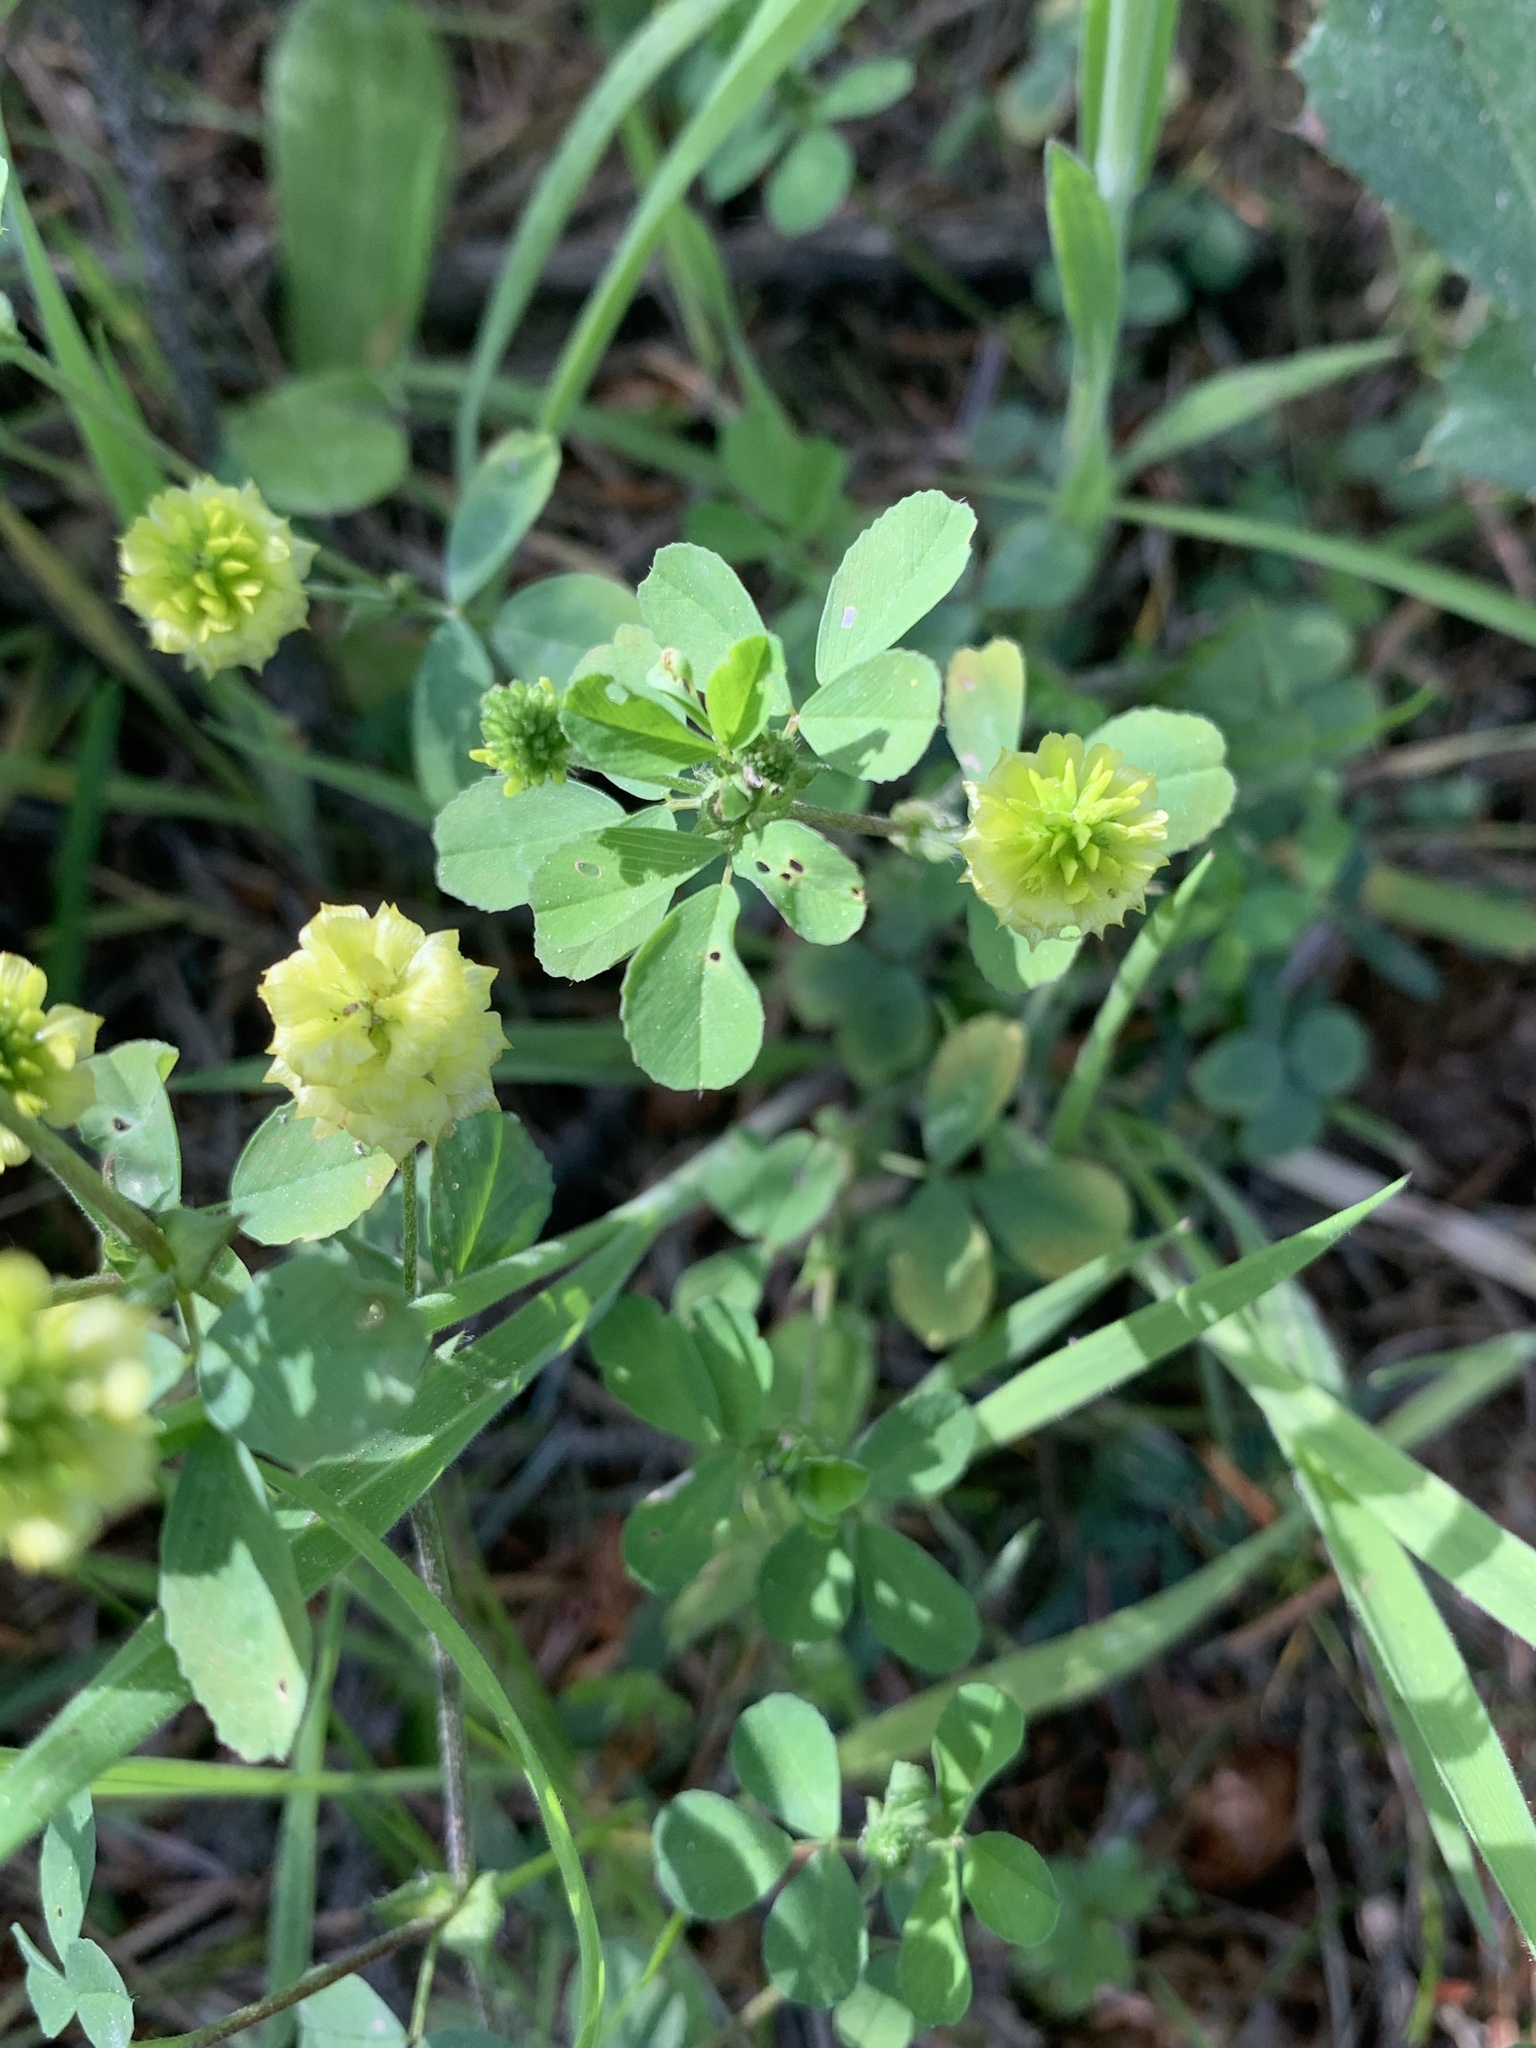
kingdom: Plantae
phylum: Tracheophyta
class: Magnoliopsida
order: Fabales
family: Fabaceae
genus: Trifolium
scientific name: Trifolium campestre
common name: Field clover
